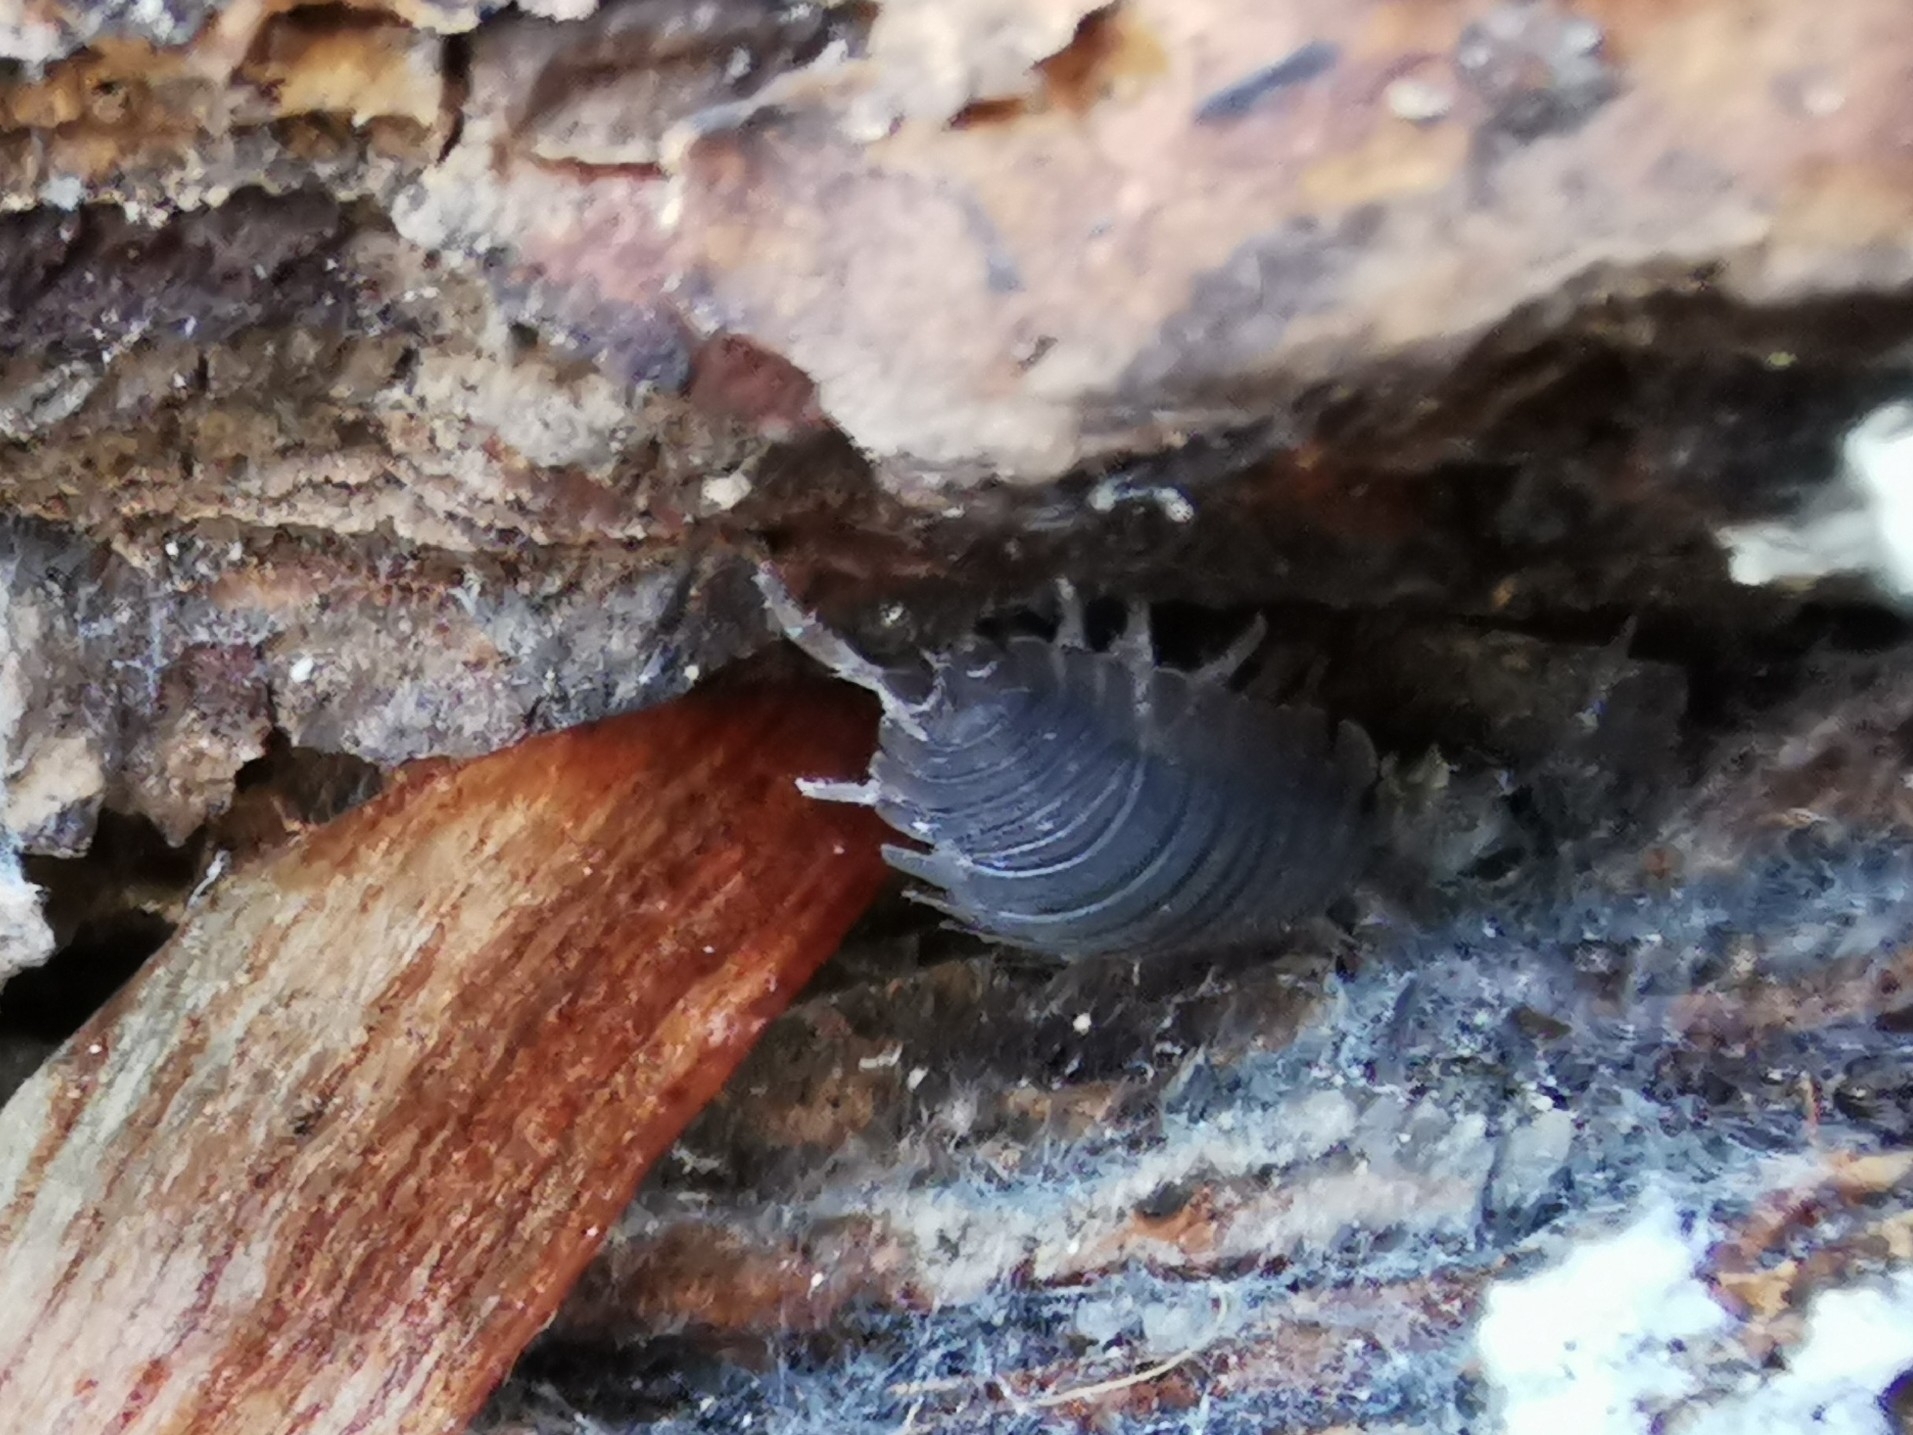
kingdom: Animalia
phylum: Arthropoda
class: Malacostraca
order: Isopoda
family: Porcellionidae
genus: Porcellio
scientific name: Porcellio scaber
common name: Common rough woodlouse
